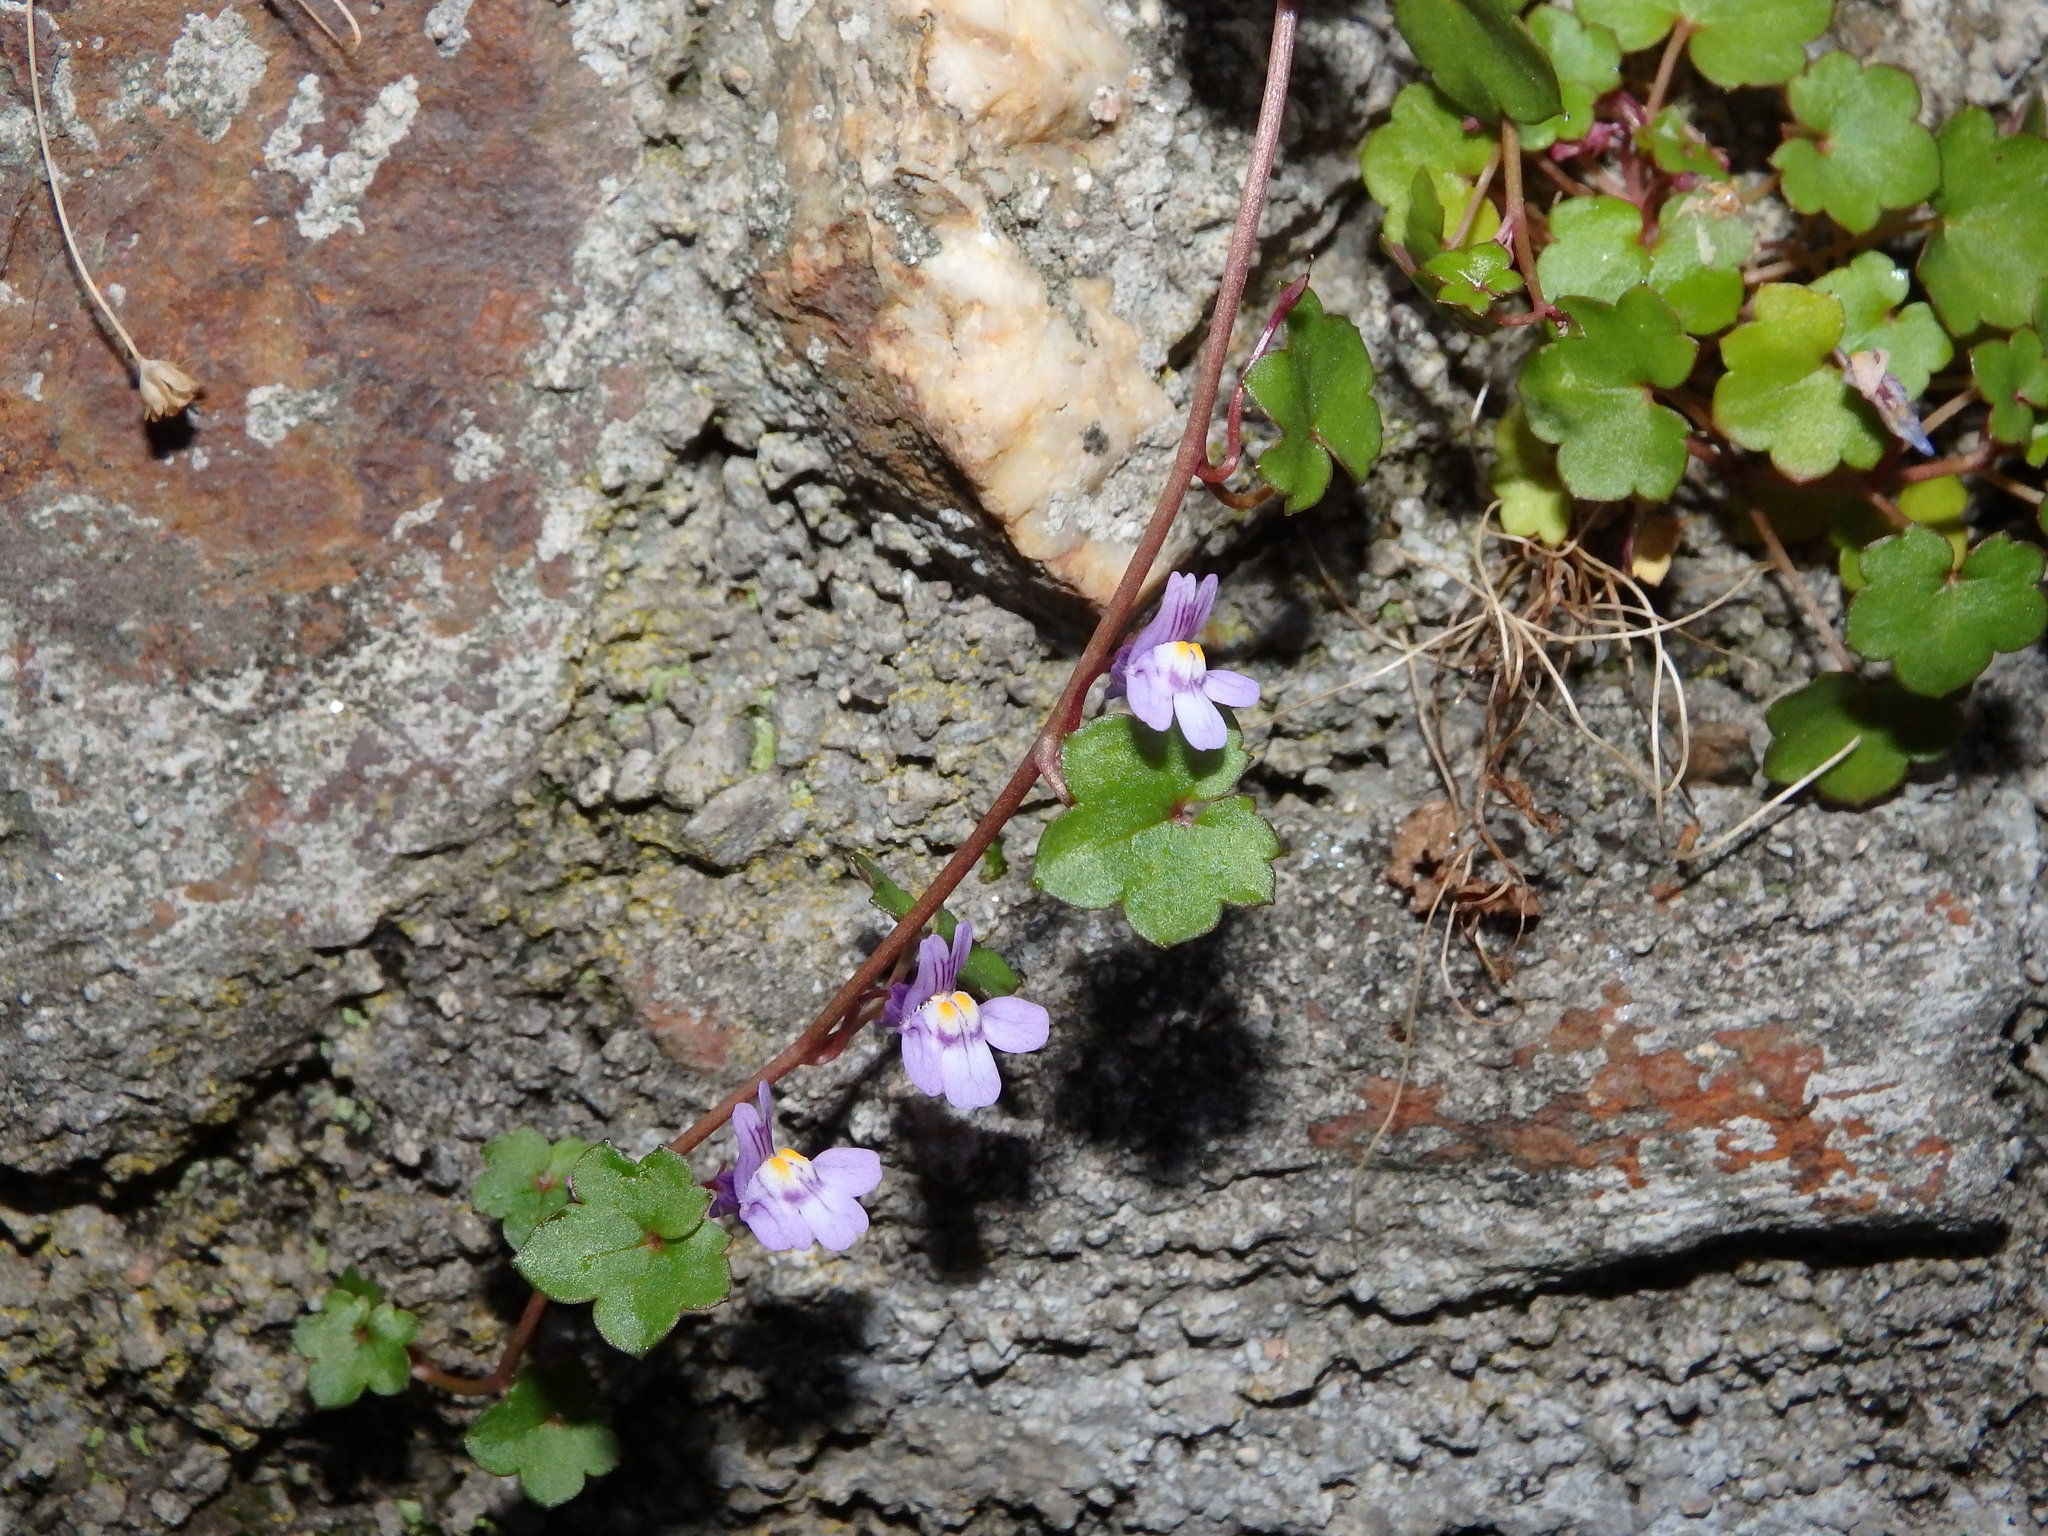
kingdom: Plantae
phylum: Tracheophyta
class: Magnoliopsida
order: Lamiales
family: Plantaginaceae
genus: Cymbalaria
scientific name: Cymbalaria muralis
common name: Ivy-leaved toadflax
